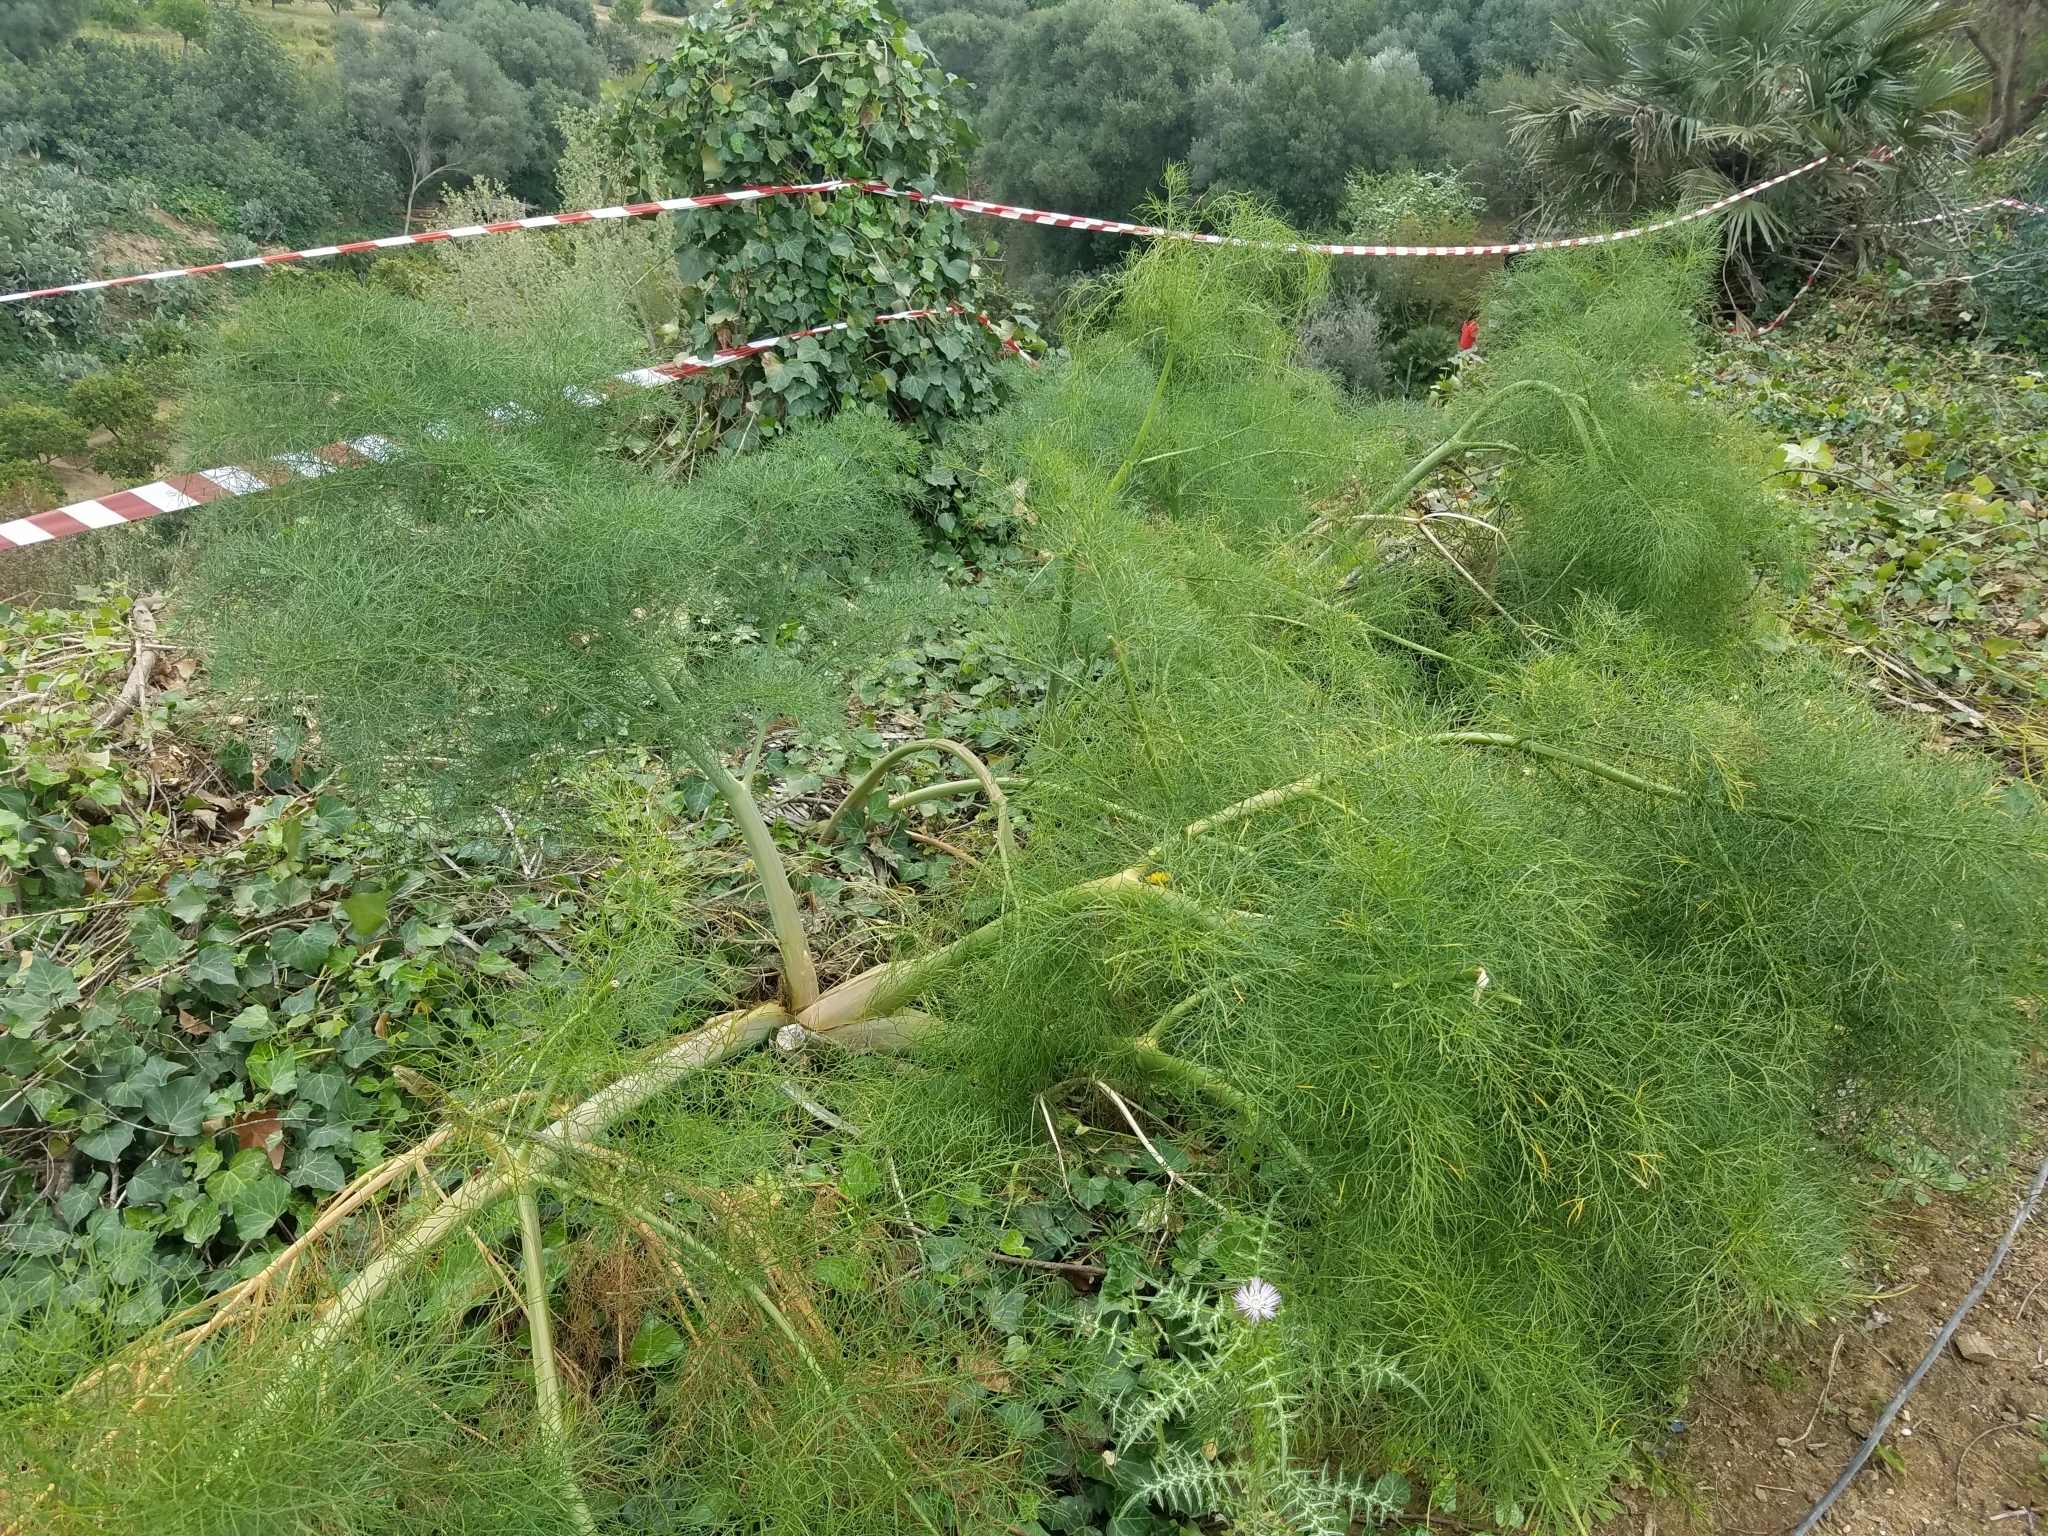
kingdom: Plantae
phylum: Tracheophyta
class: Magnoliopsida
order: Apiales
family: Apiaceae
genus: Ferula
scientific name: Ferula communis
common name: Giant fennel
